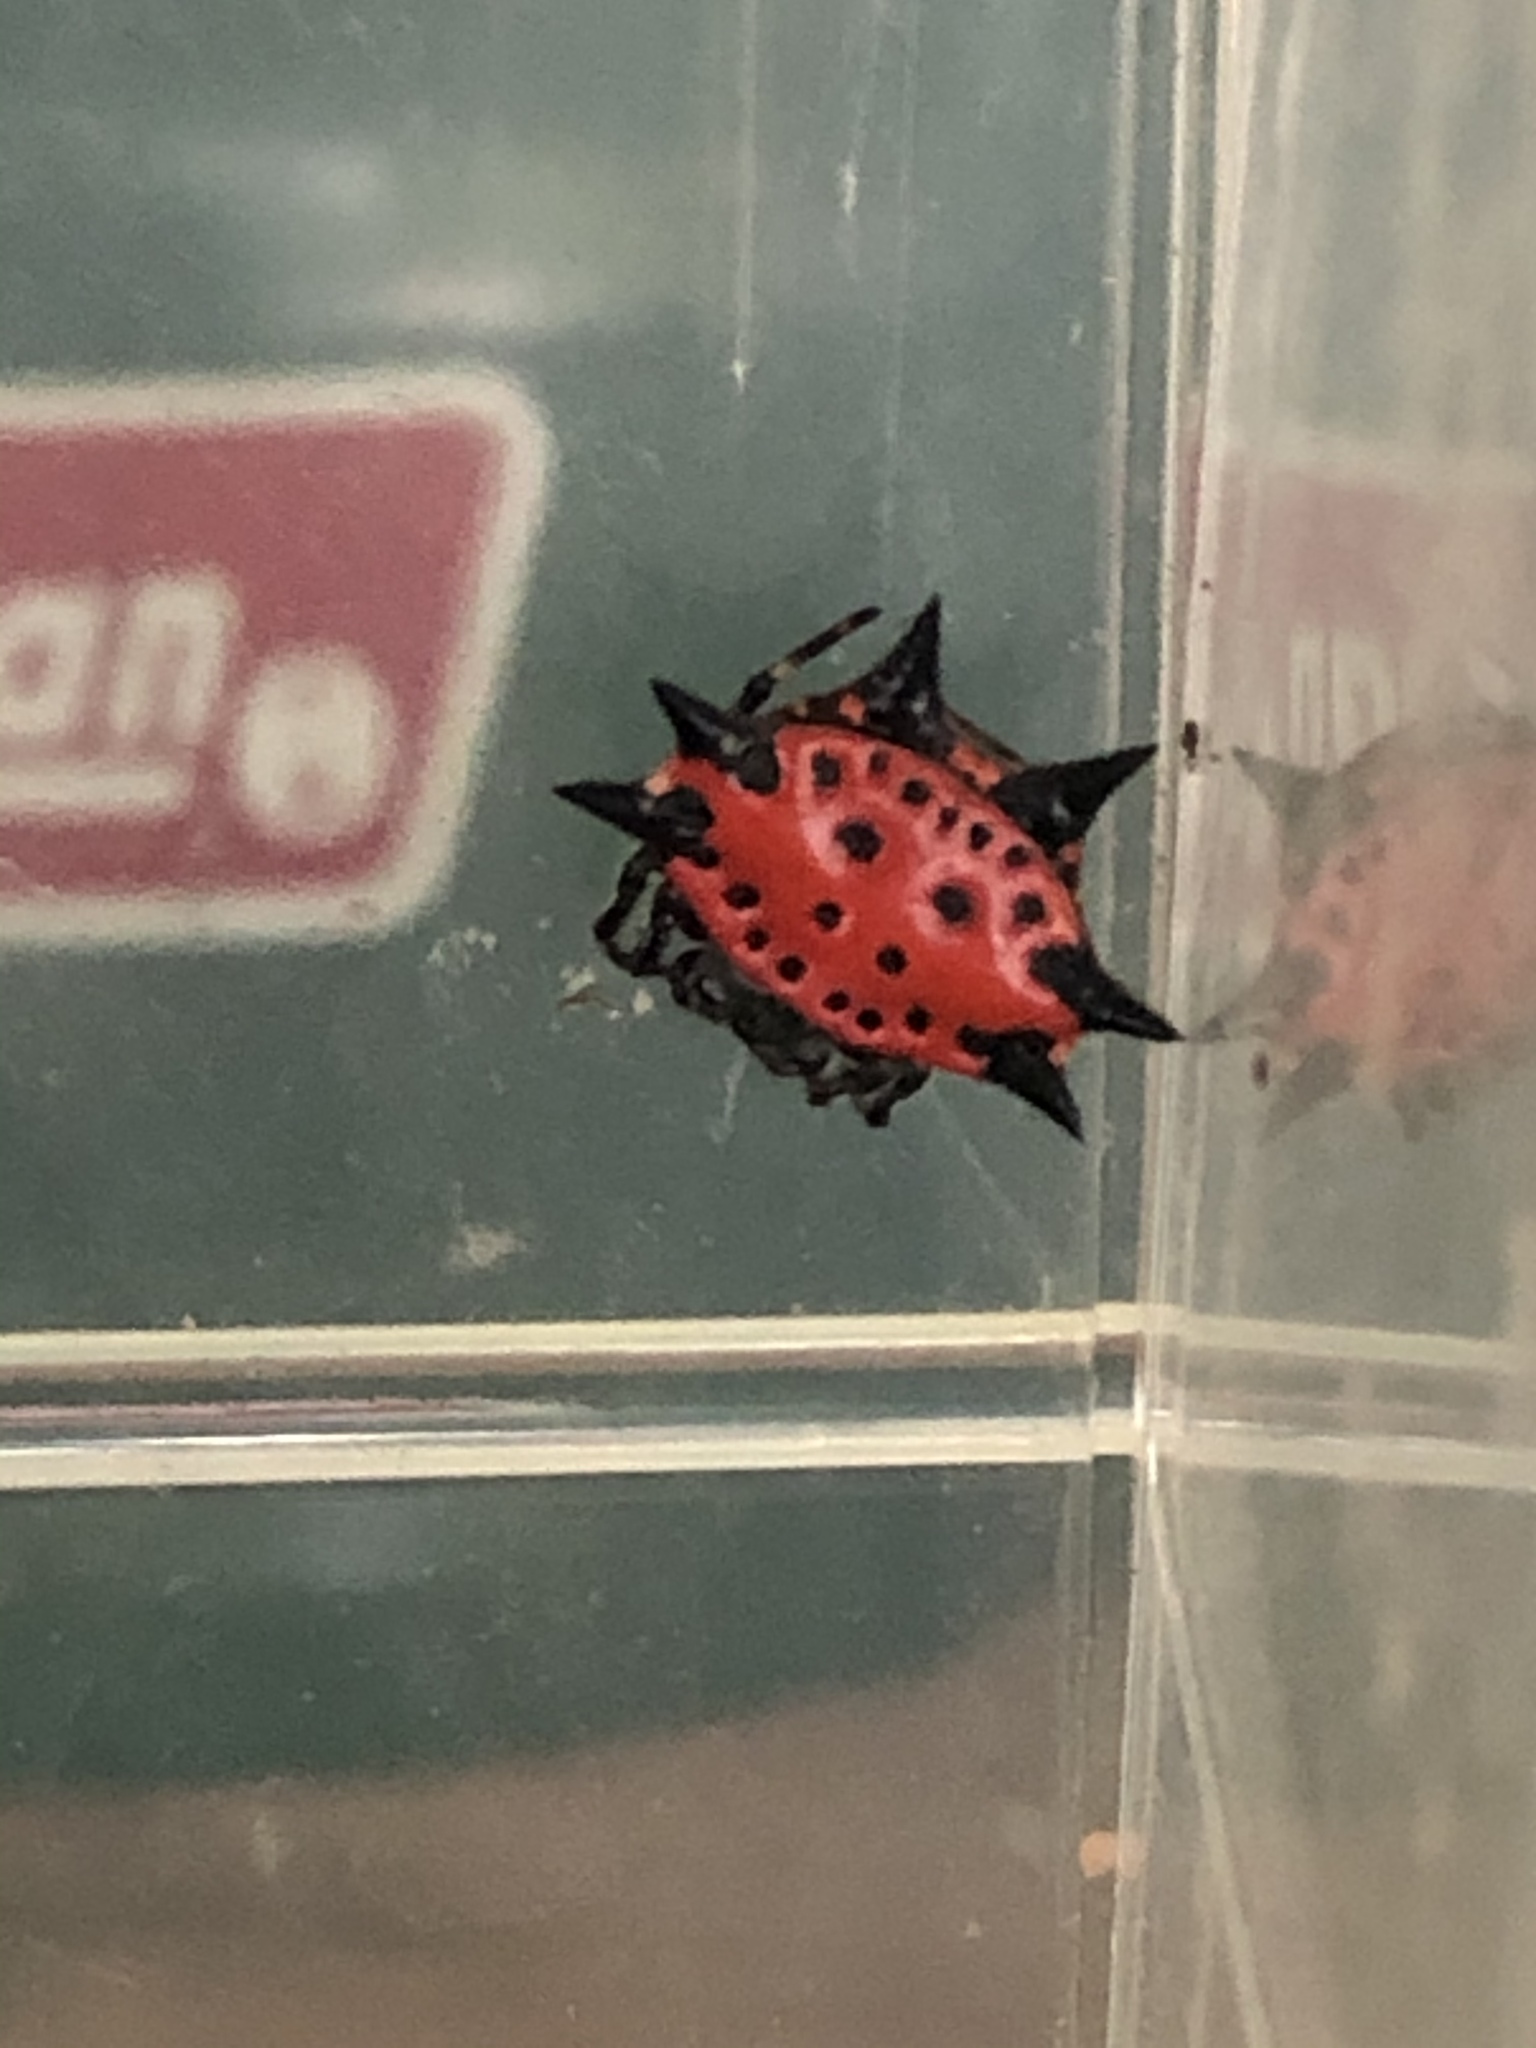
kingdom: Animalia
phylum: Arthropoda
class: Arachnida
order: Araneae
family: Araneidae
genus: Gasteracantha
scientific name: Gasteracantha cancriformis
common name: Orb weavers
